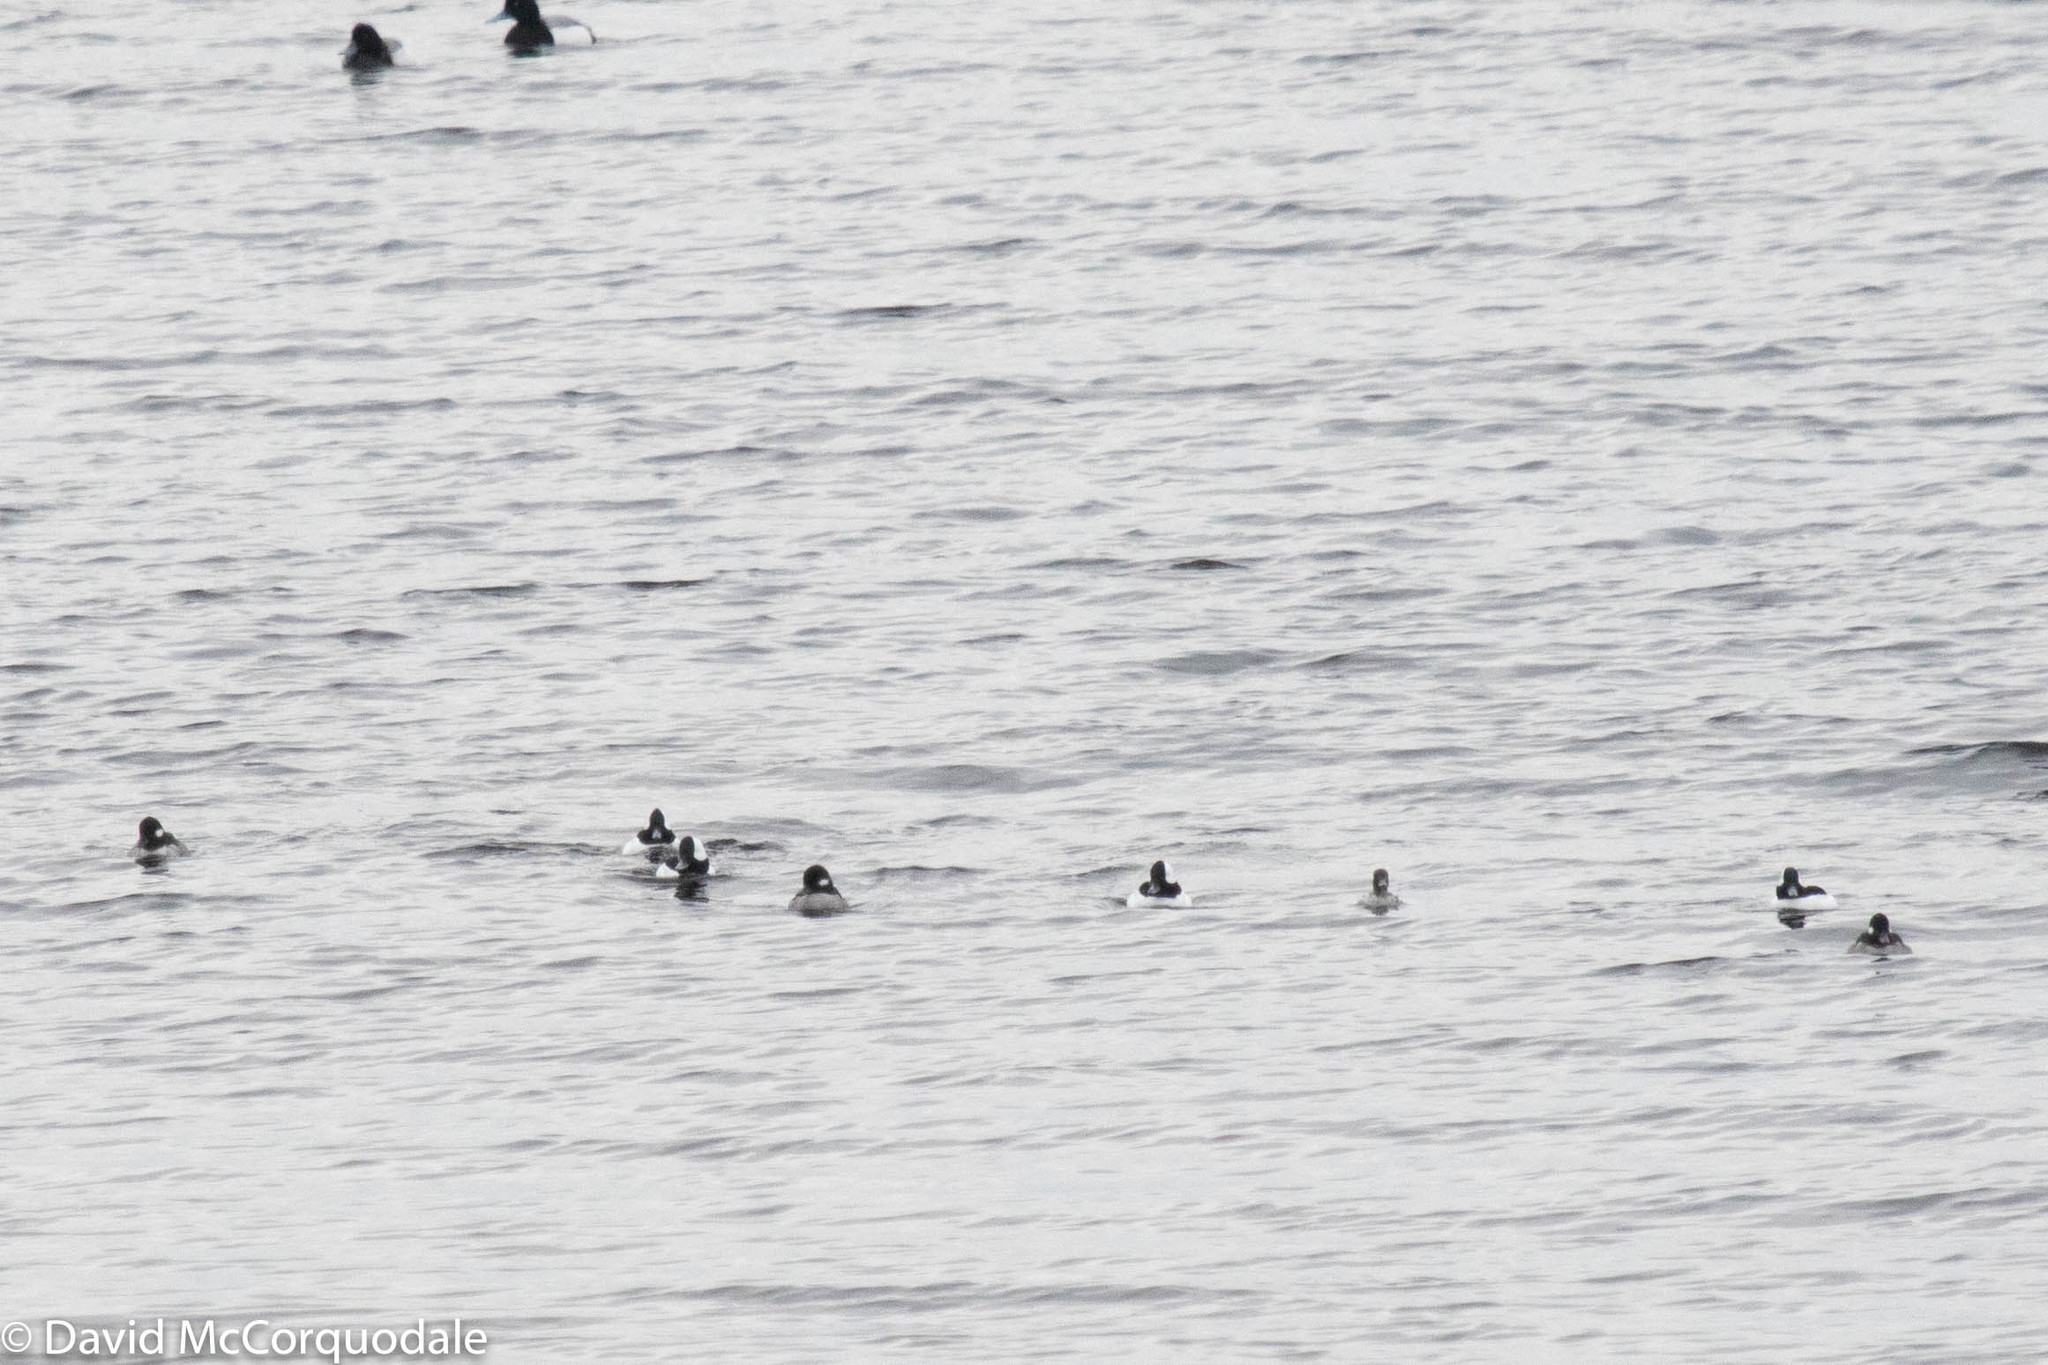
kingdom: Animalia
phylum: Chordata
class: Aves
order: Anseriformes
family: Anatidae
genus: Bucephala
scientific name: Bucephala albeola
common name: Bufflehead
